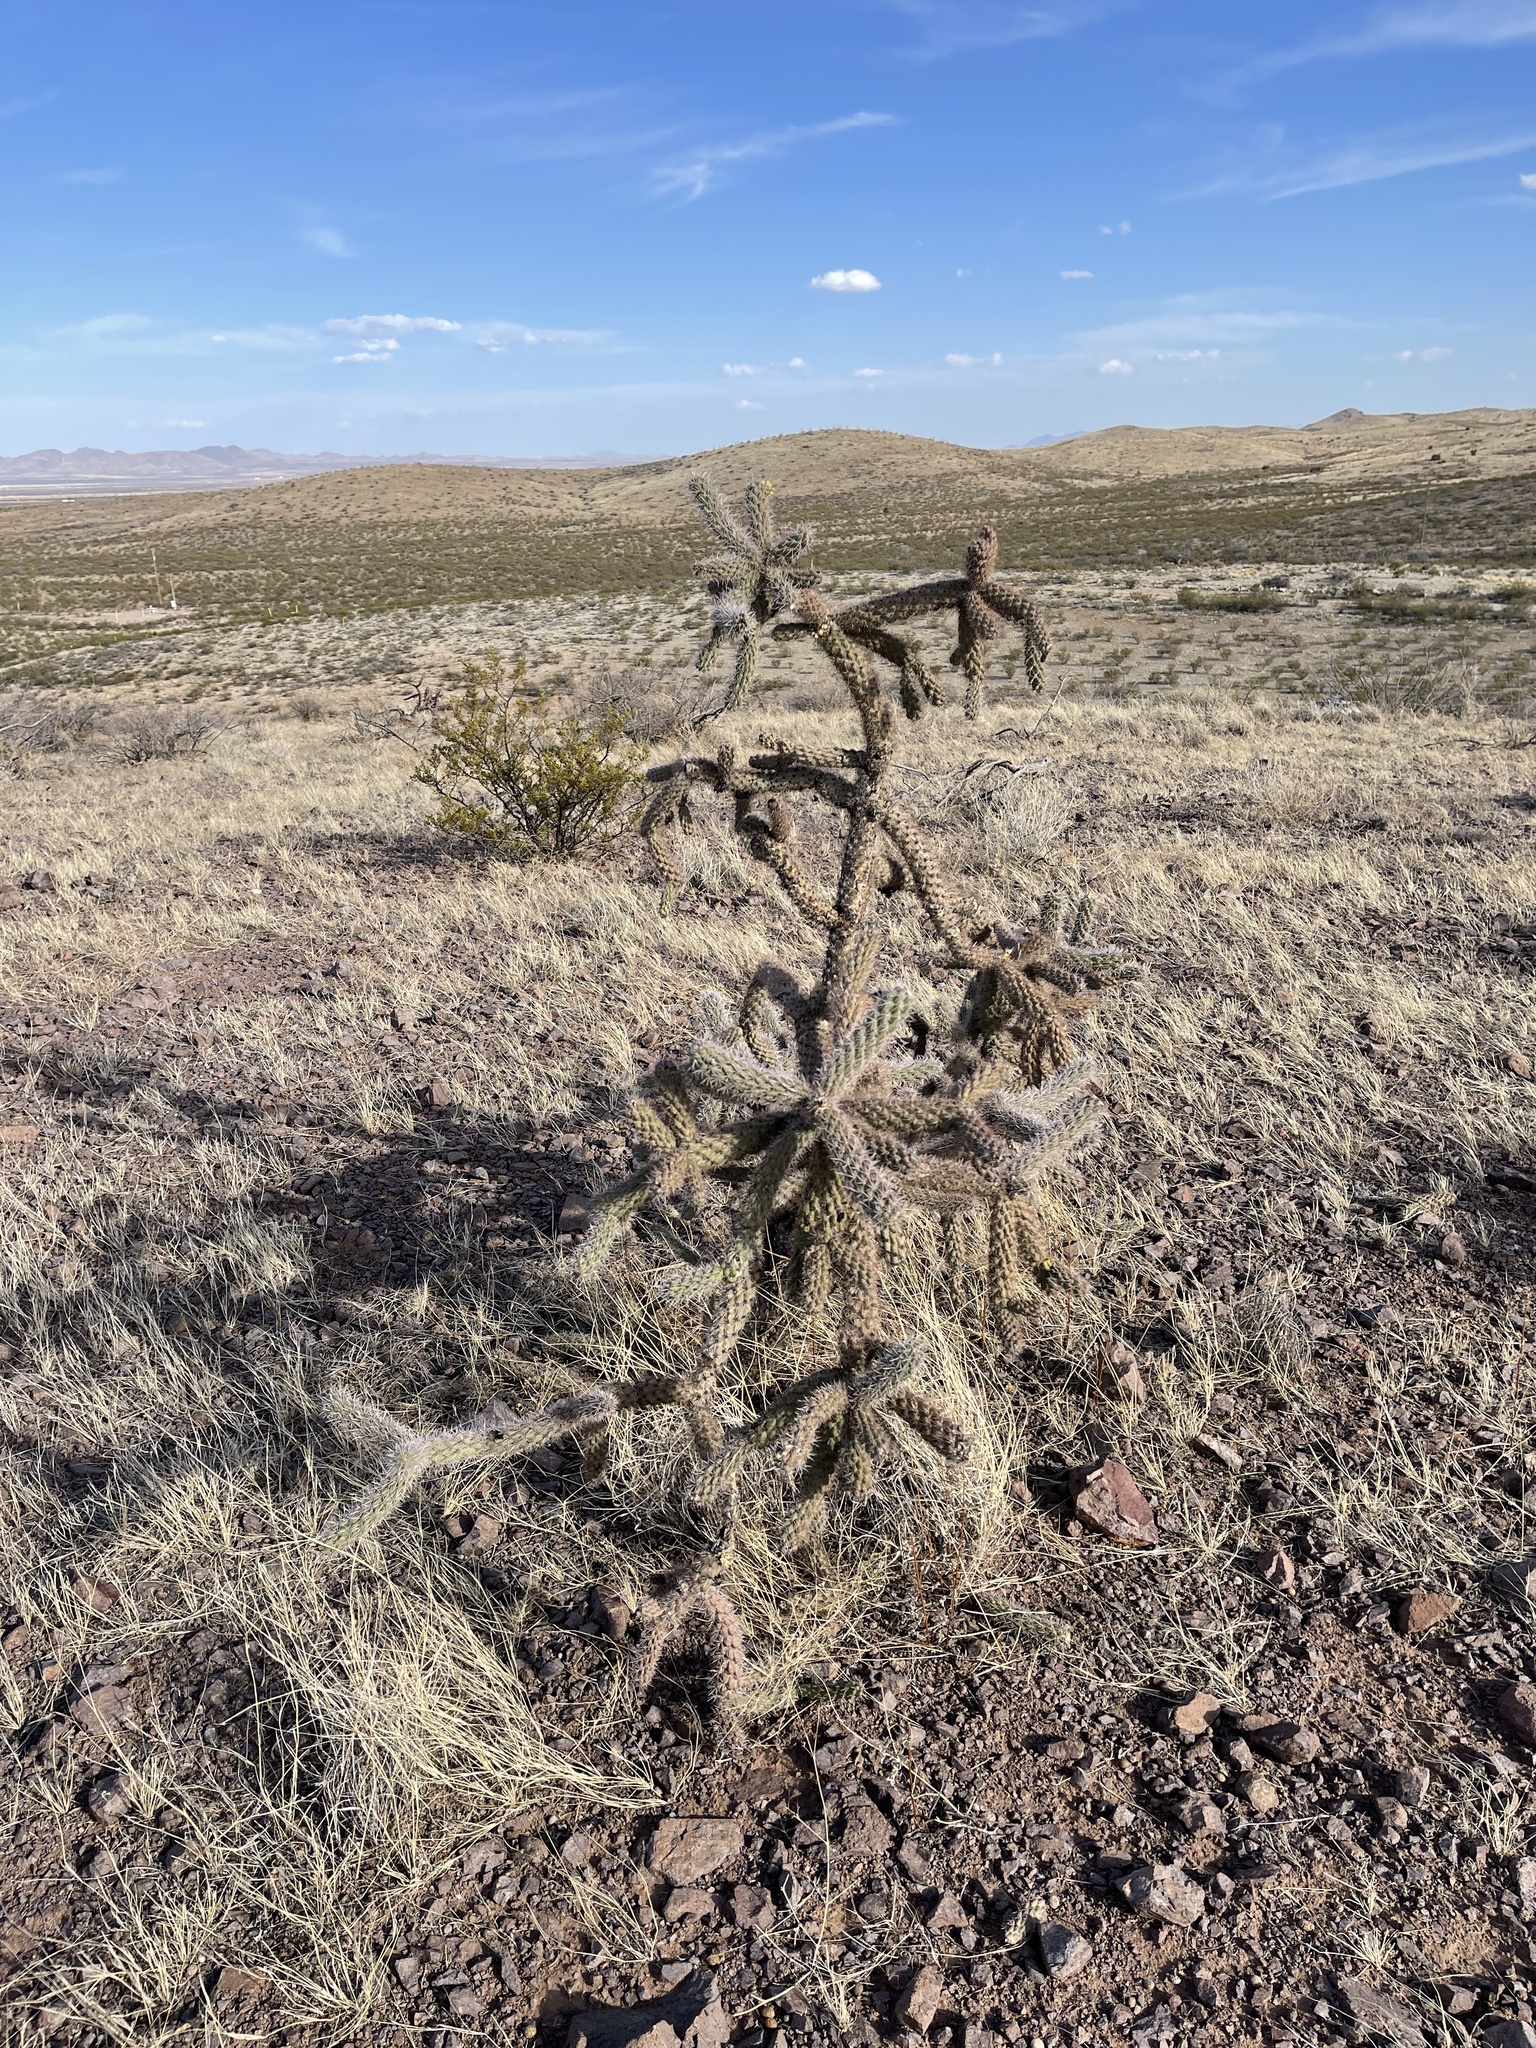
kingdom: Plantae
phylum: Tracheophyta
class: Magnoliopsida
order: Caryophyllales
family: Cactaceae
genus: Cylindropuntia
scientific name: Cylindropuntia imbricata
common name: Candelabrum cactus
